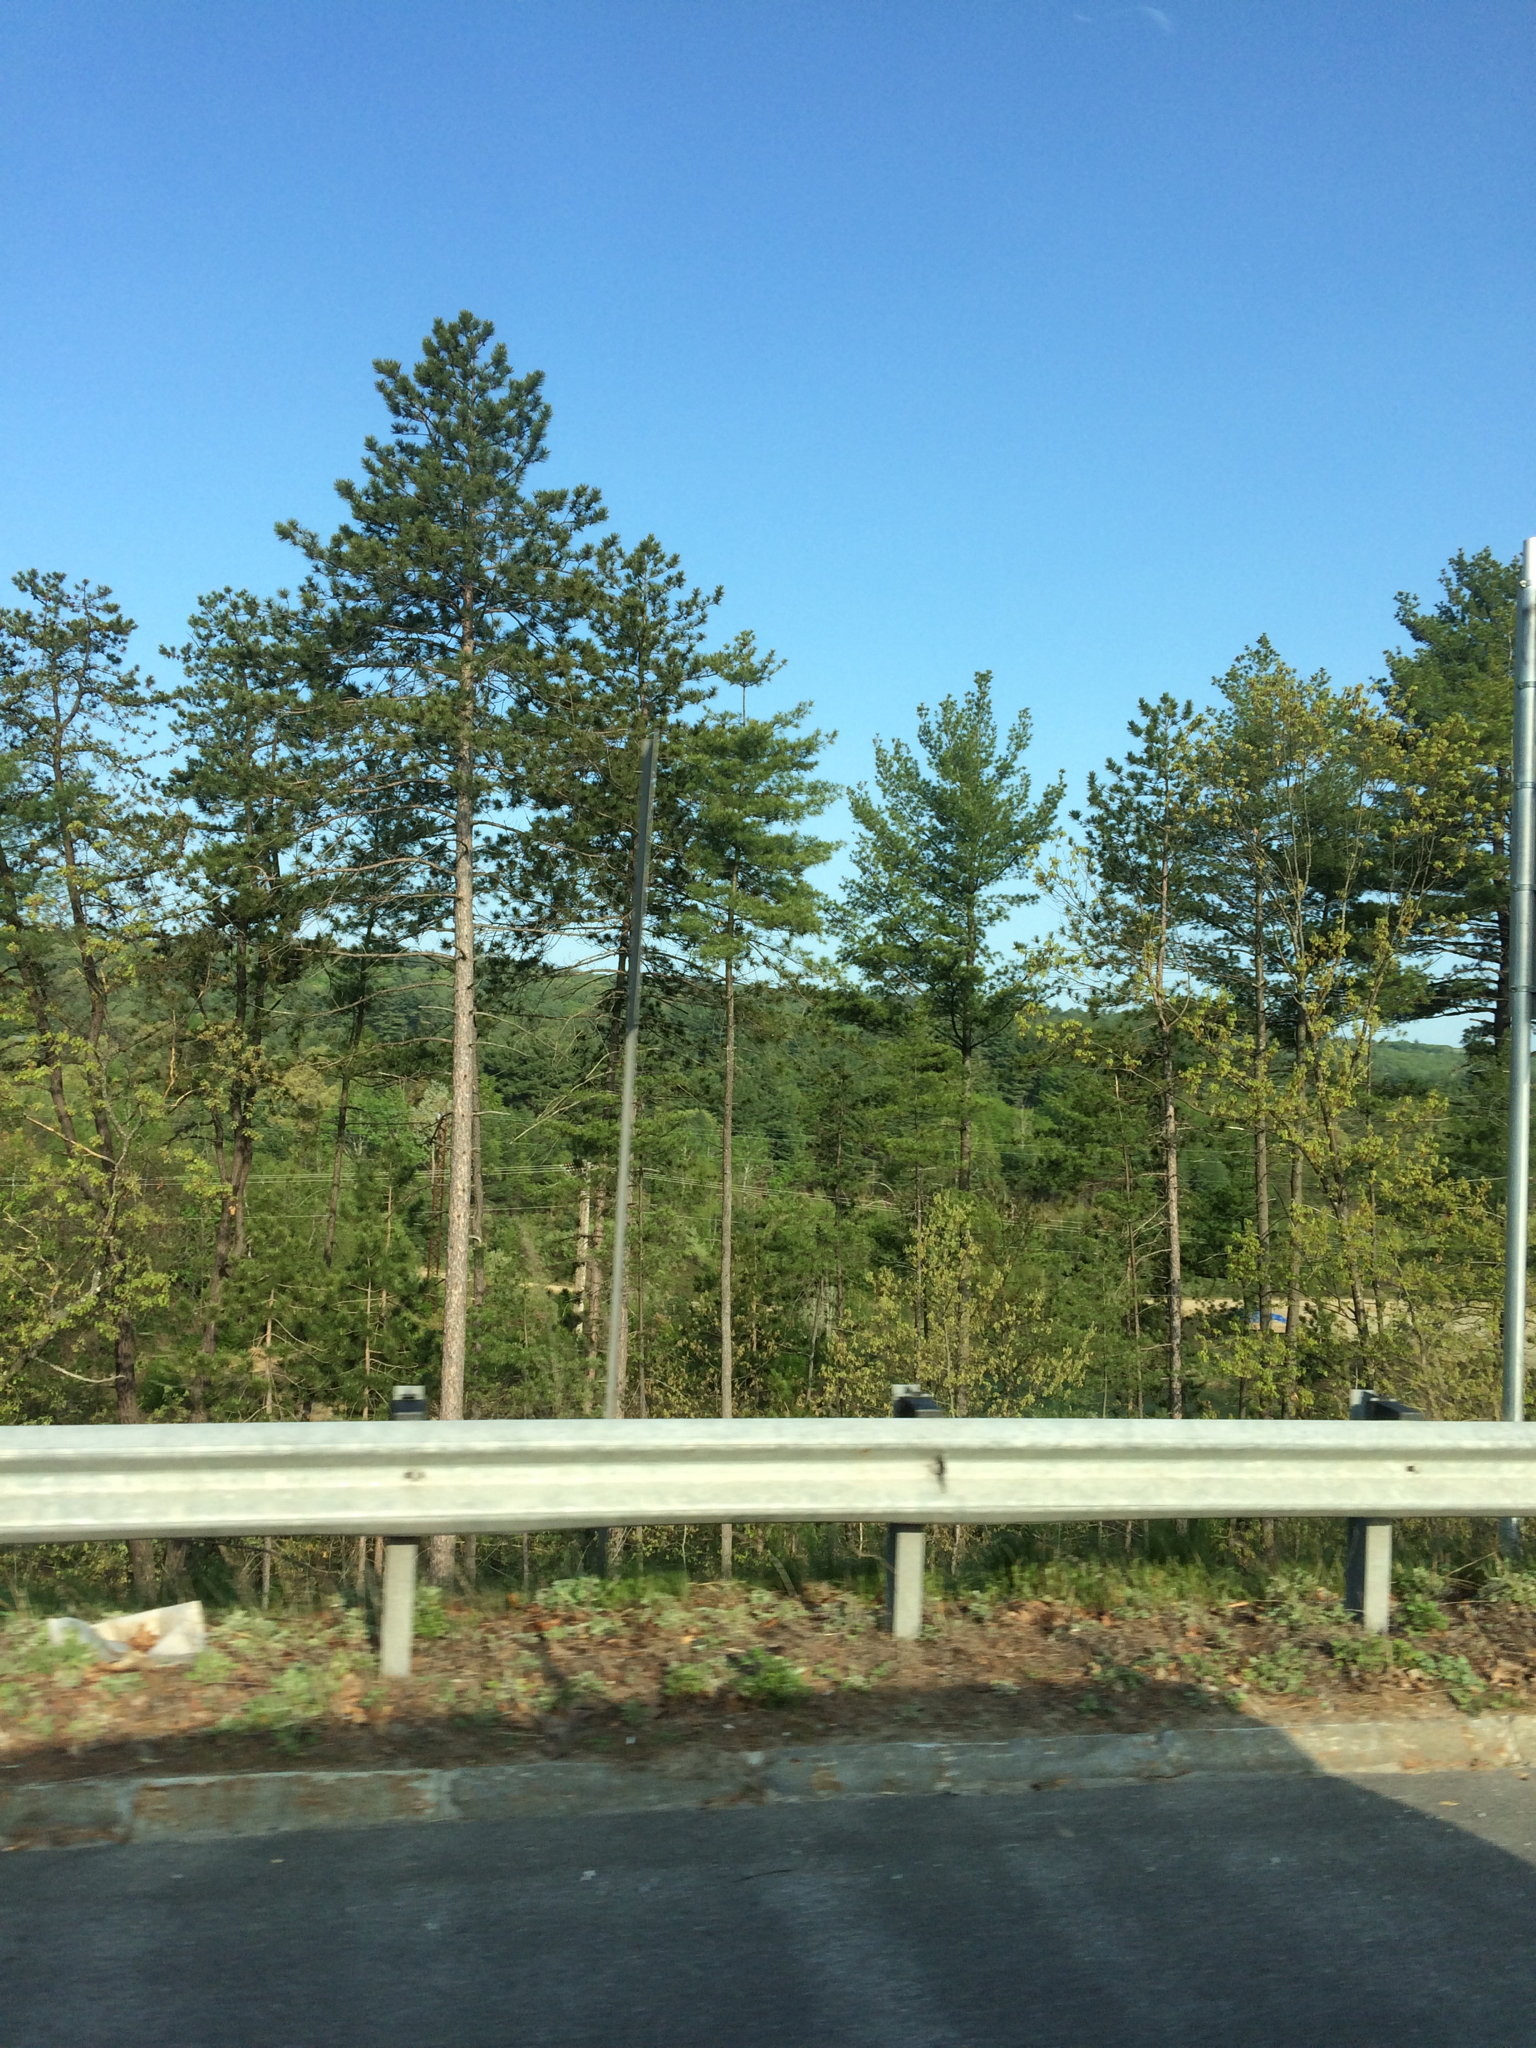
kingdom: Plantae
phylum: Tracheophyta
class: Pinopsida
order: Pinales
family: Pinaceae
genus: Pinus
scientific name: Pinus resinosa
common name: Norway pine
